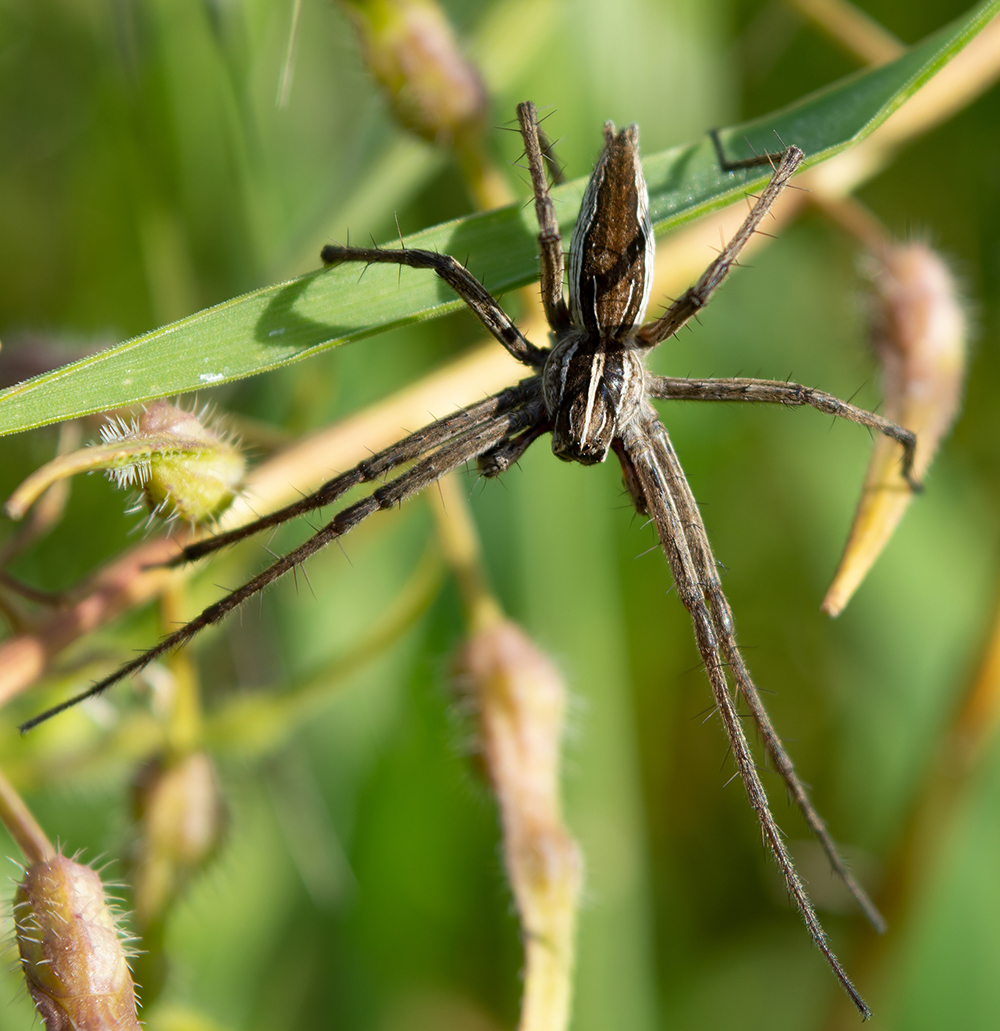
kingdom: Animalia
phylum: Arthropoda
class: Arachnida
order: Araneae
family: Pisauridae
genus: Pisaura
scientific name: Pisaura mirabilis
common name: Tent spider
